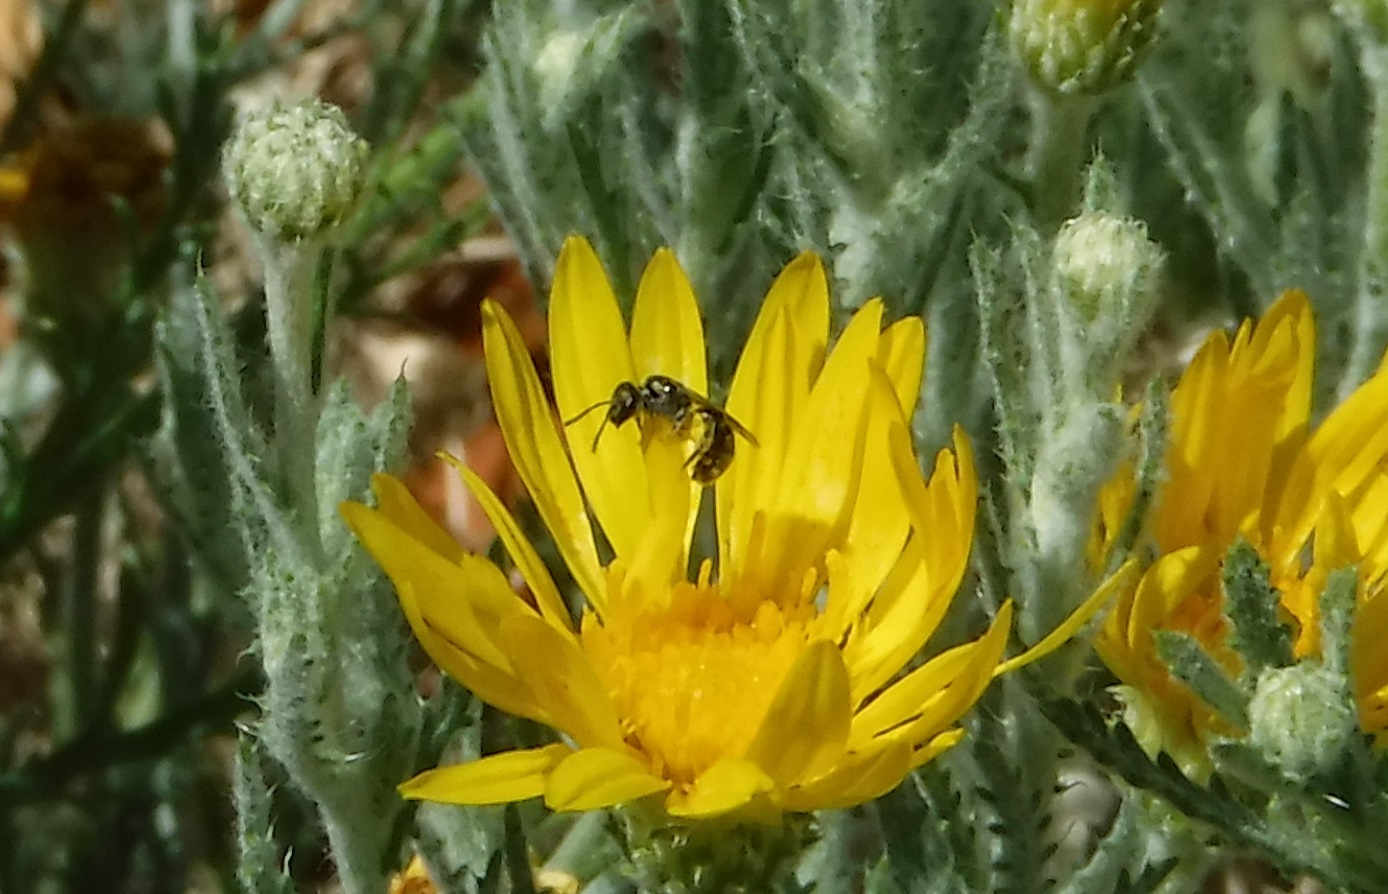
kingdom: Animalia
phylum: Arthropoda
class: Insecta
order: Hymenoptera
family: Halictidae
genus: Dialictus
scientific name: Dialictus
